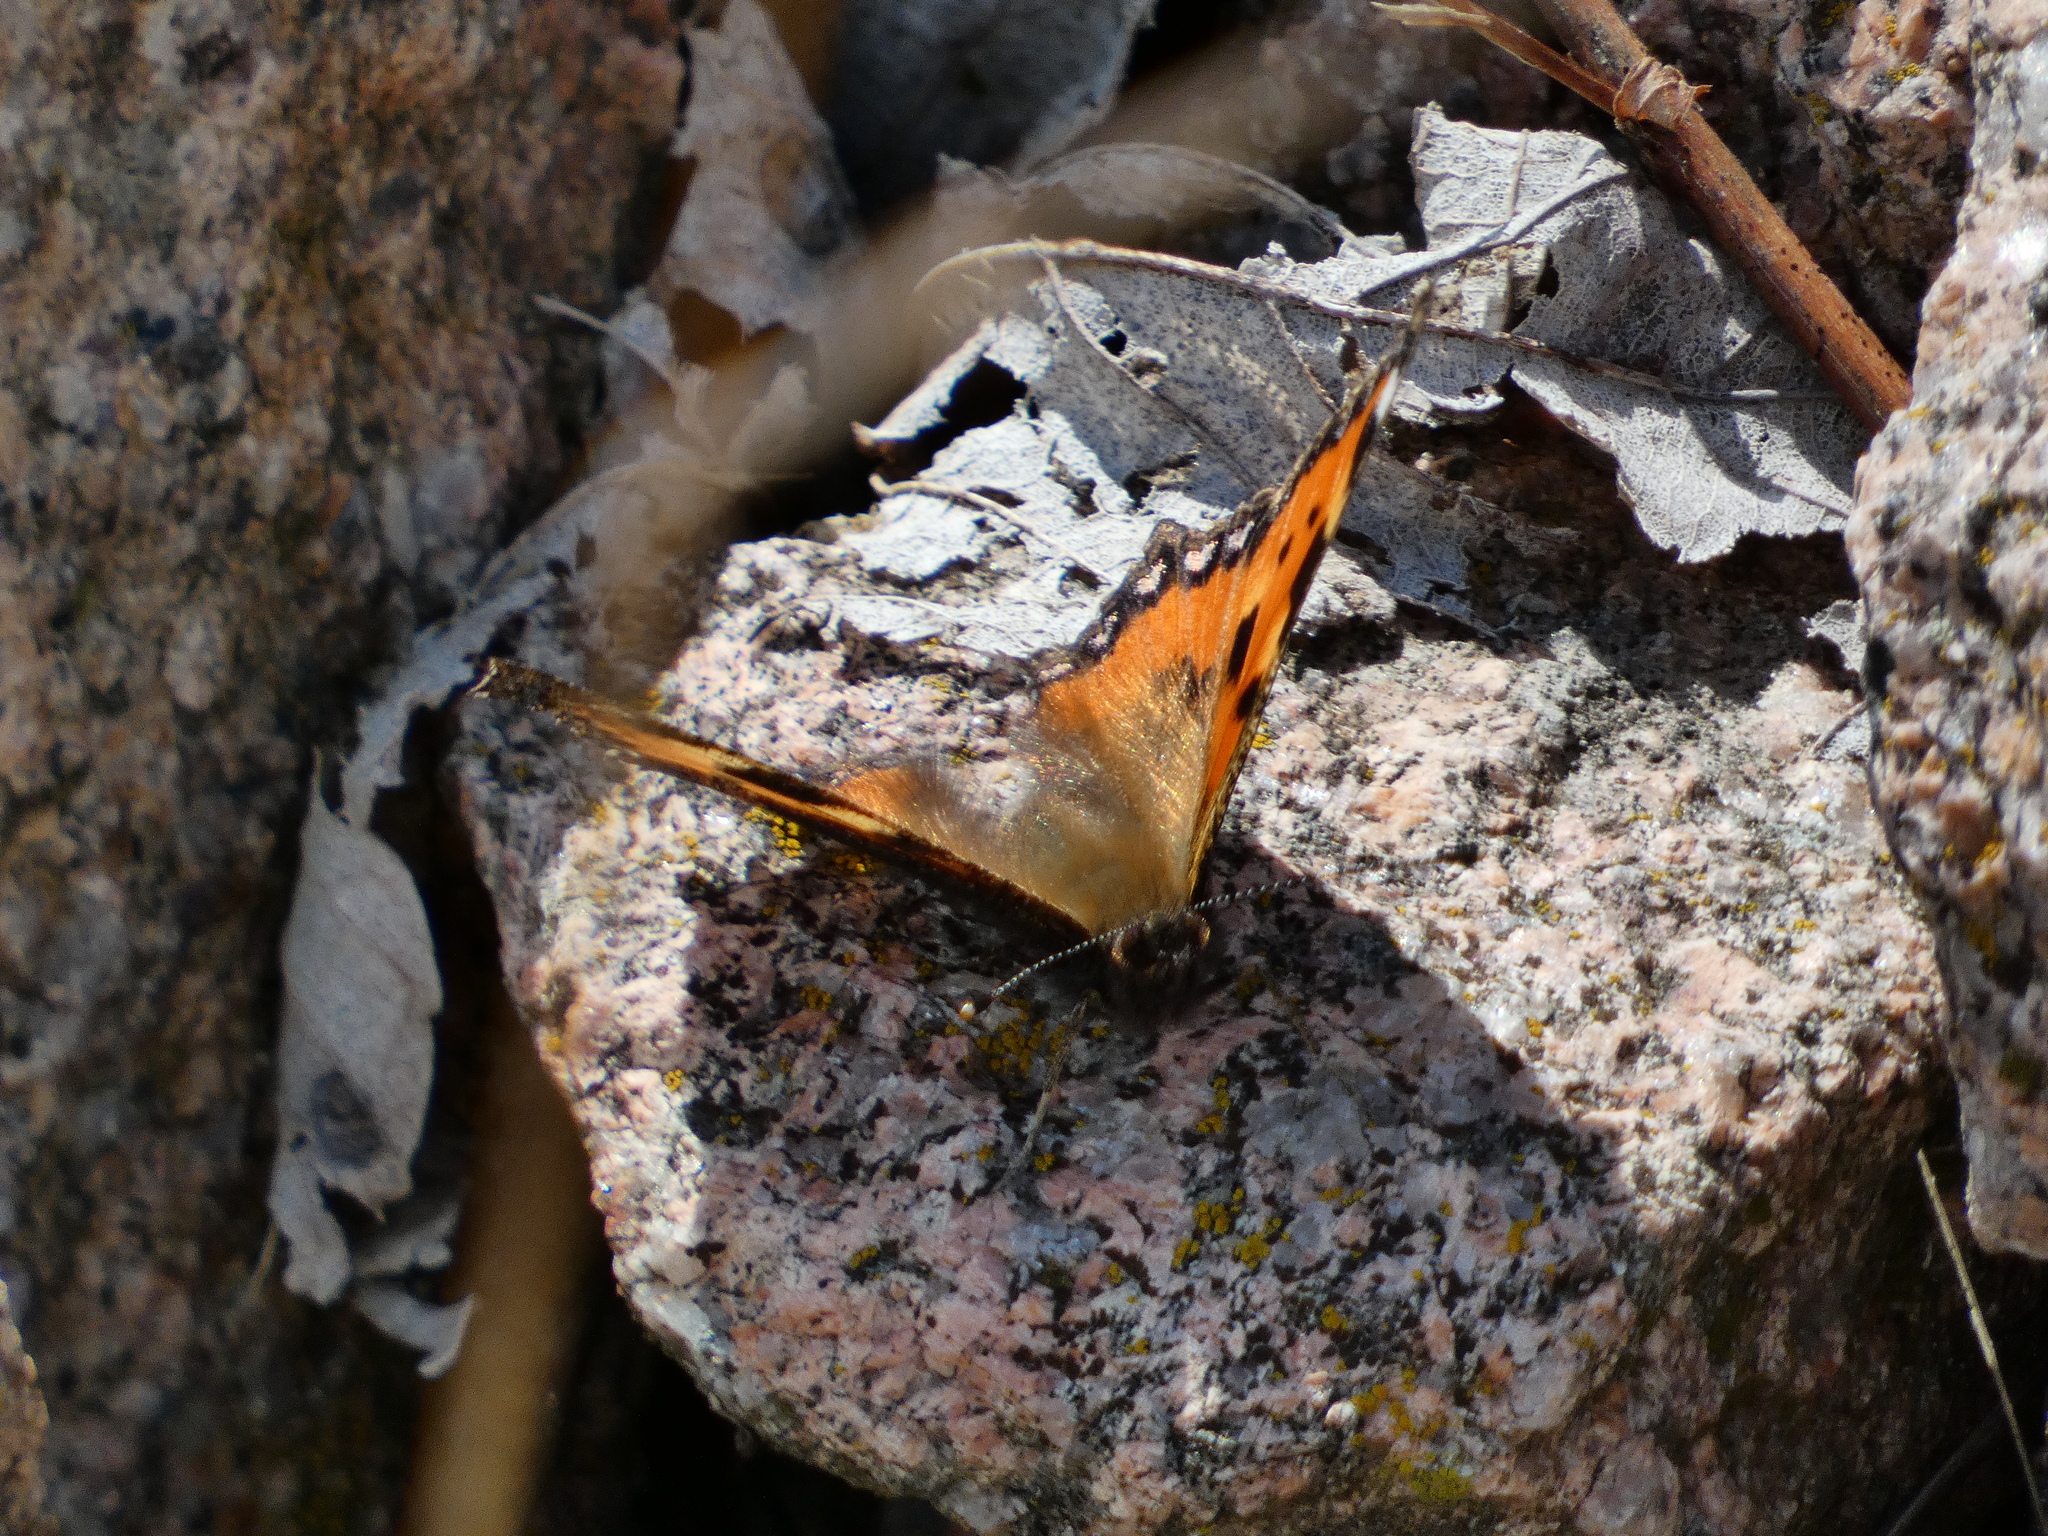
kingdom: Animalia
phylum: Arthropoda
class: Insecta
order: Lepidoptera
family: Nymphalidae
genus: Aglais
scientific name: Aglais urticae
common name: Small tortoiseshell
